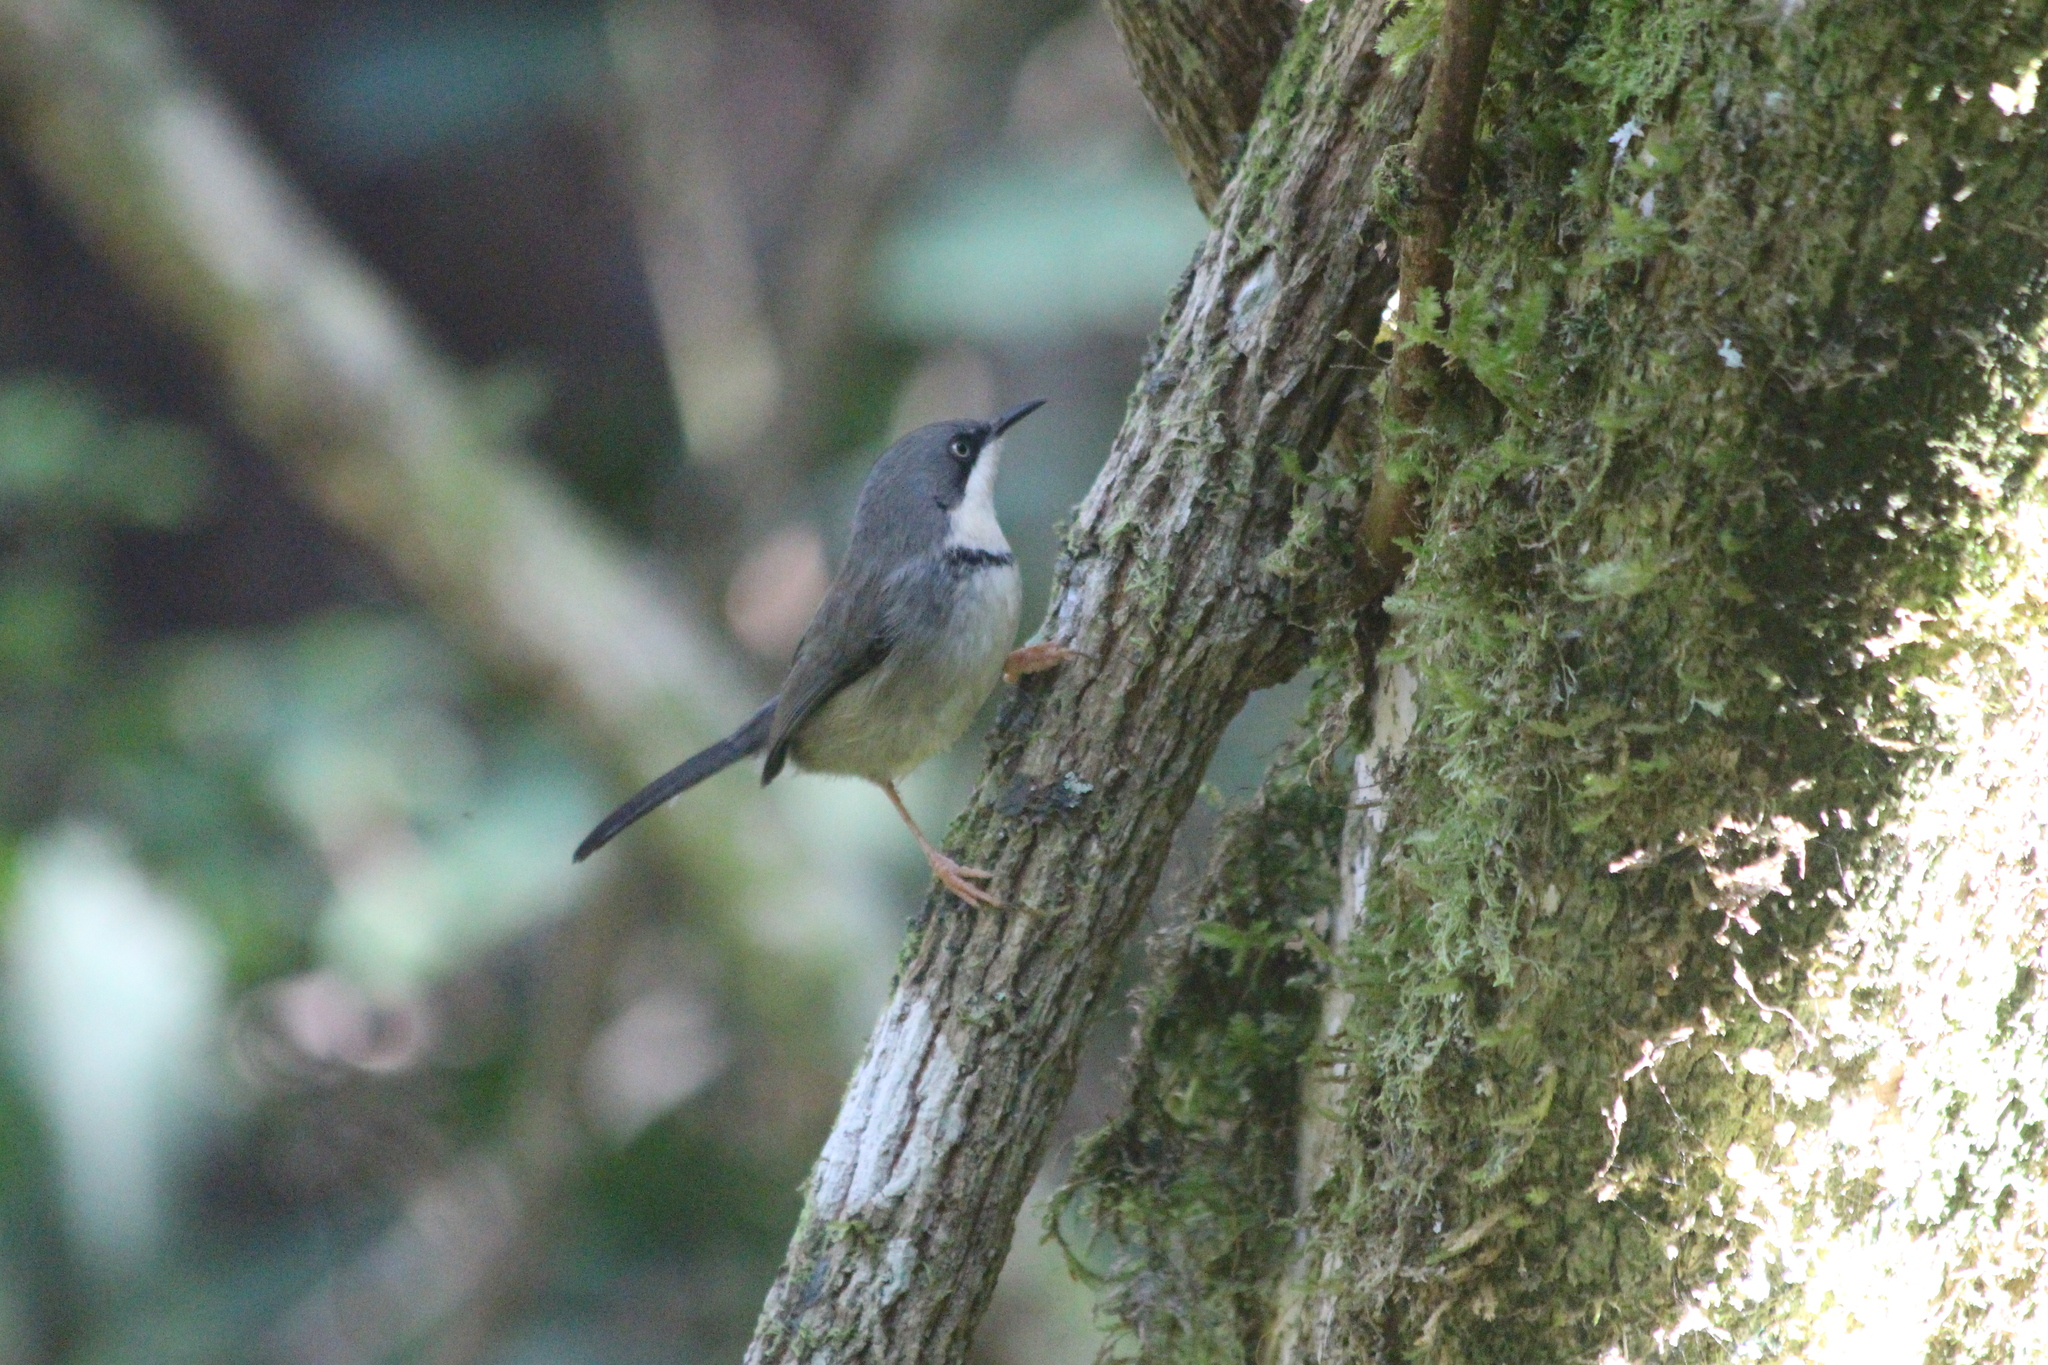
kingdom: Animalia
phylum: Chordata
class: Aves
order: Passeriformes
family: Cisticolidae
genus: Apalis
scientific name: Apalis thoracica
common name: Bar-throated apalis
